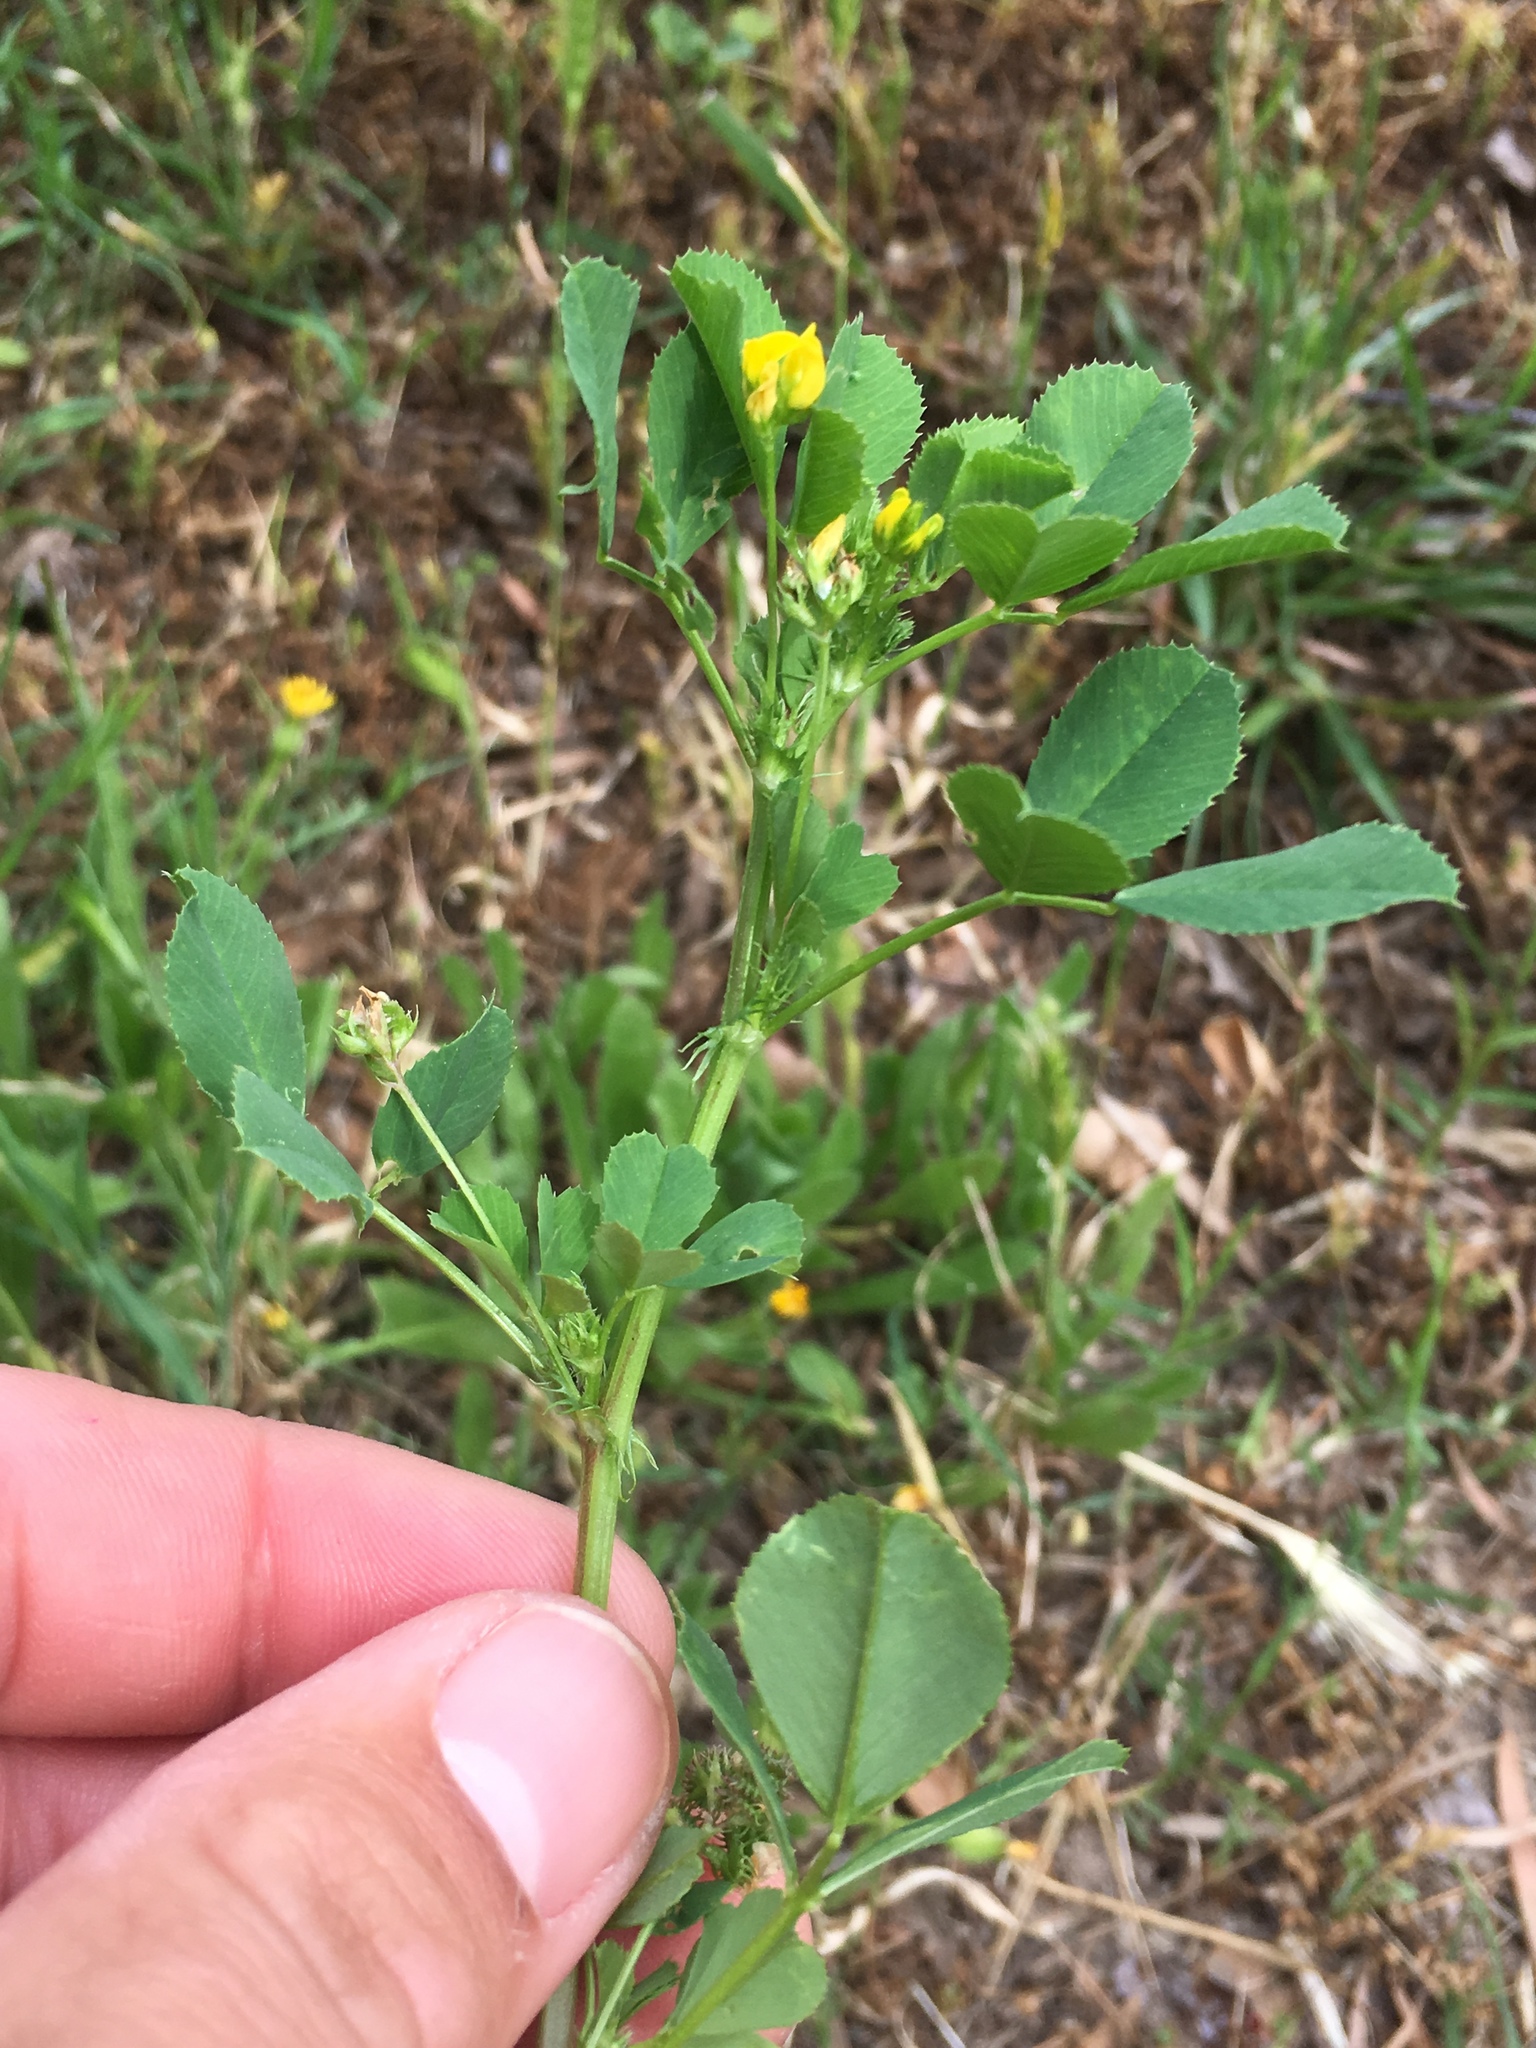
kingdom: Plantae
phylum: Tracheophyta
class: Magnoliopsida
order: Fabales
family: Fabaceae
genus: Medicago
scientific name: Medicago polymorpha
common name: Burclover
